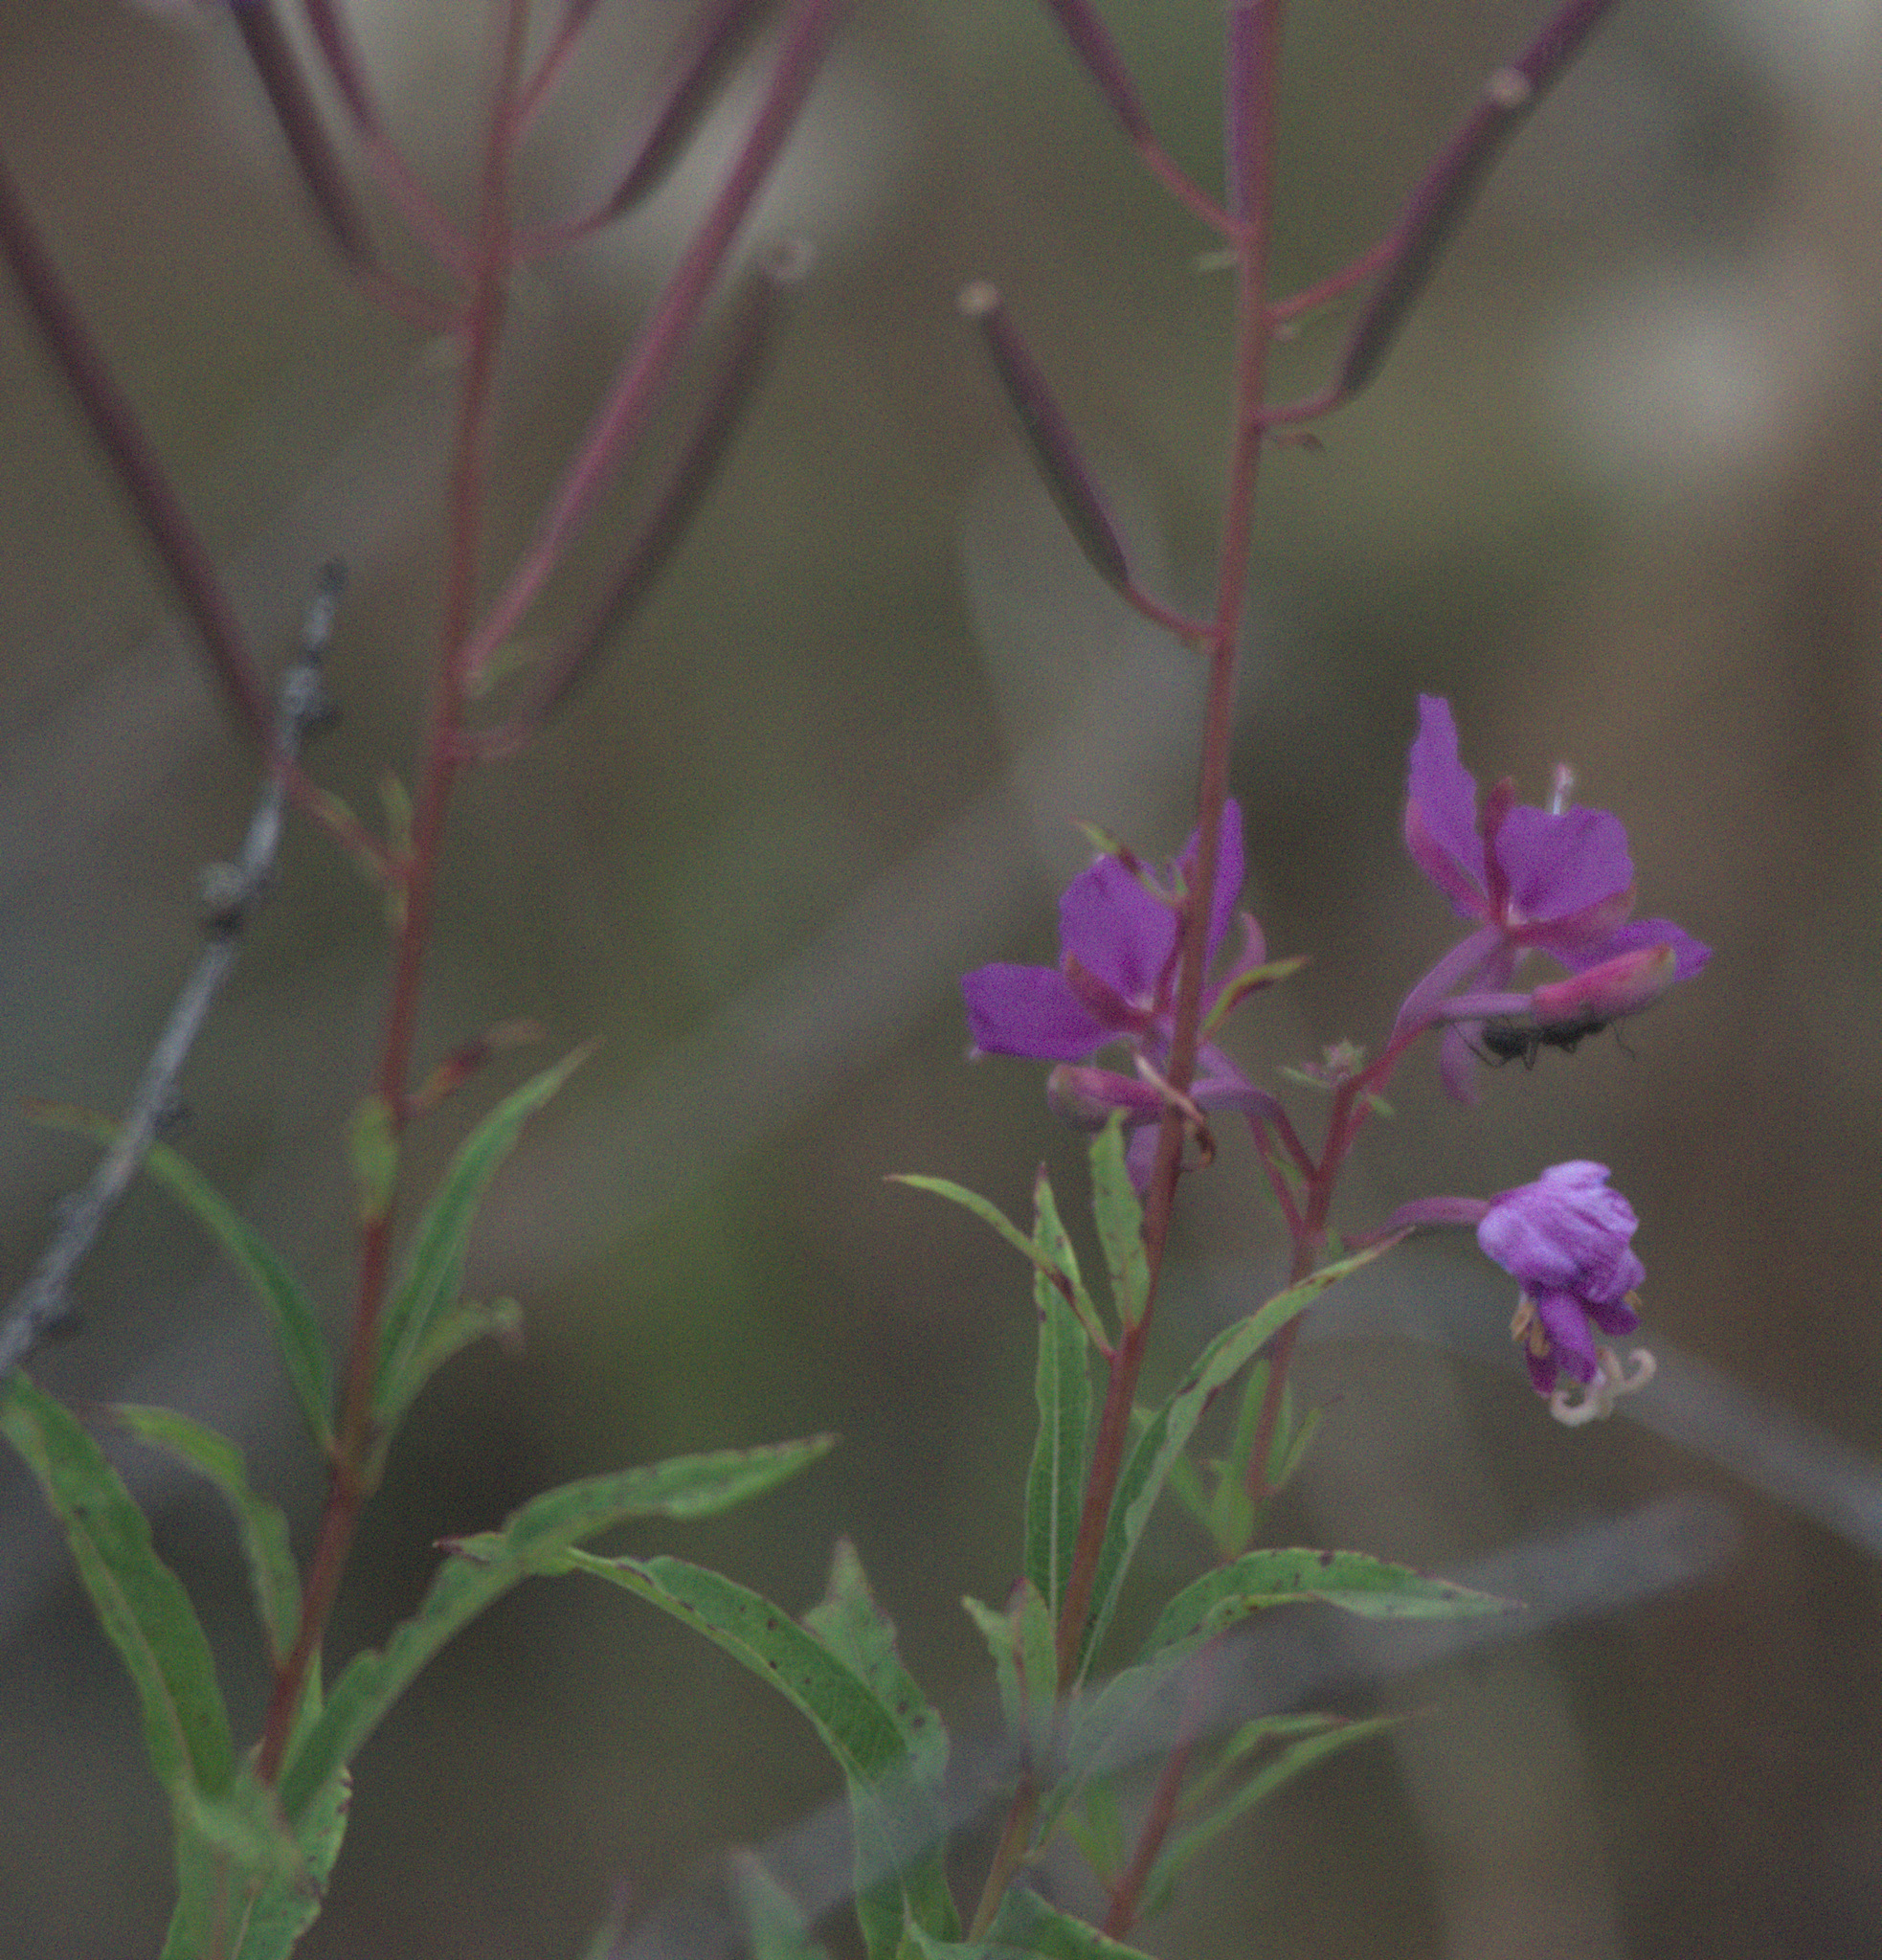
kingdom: Plantae
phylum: Tracheophyta
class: Magnoliopsida
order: Myrtales
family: Onagraceae
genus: Chamaenerion
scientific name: Chamaenerion angustifolium
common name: Fireweed
